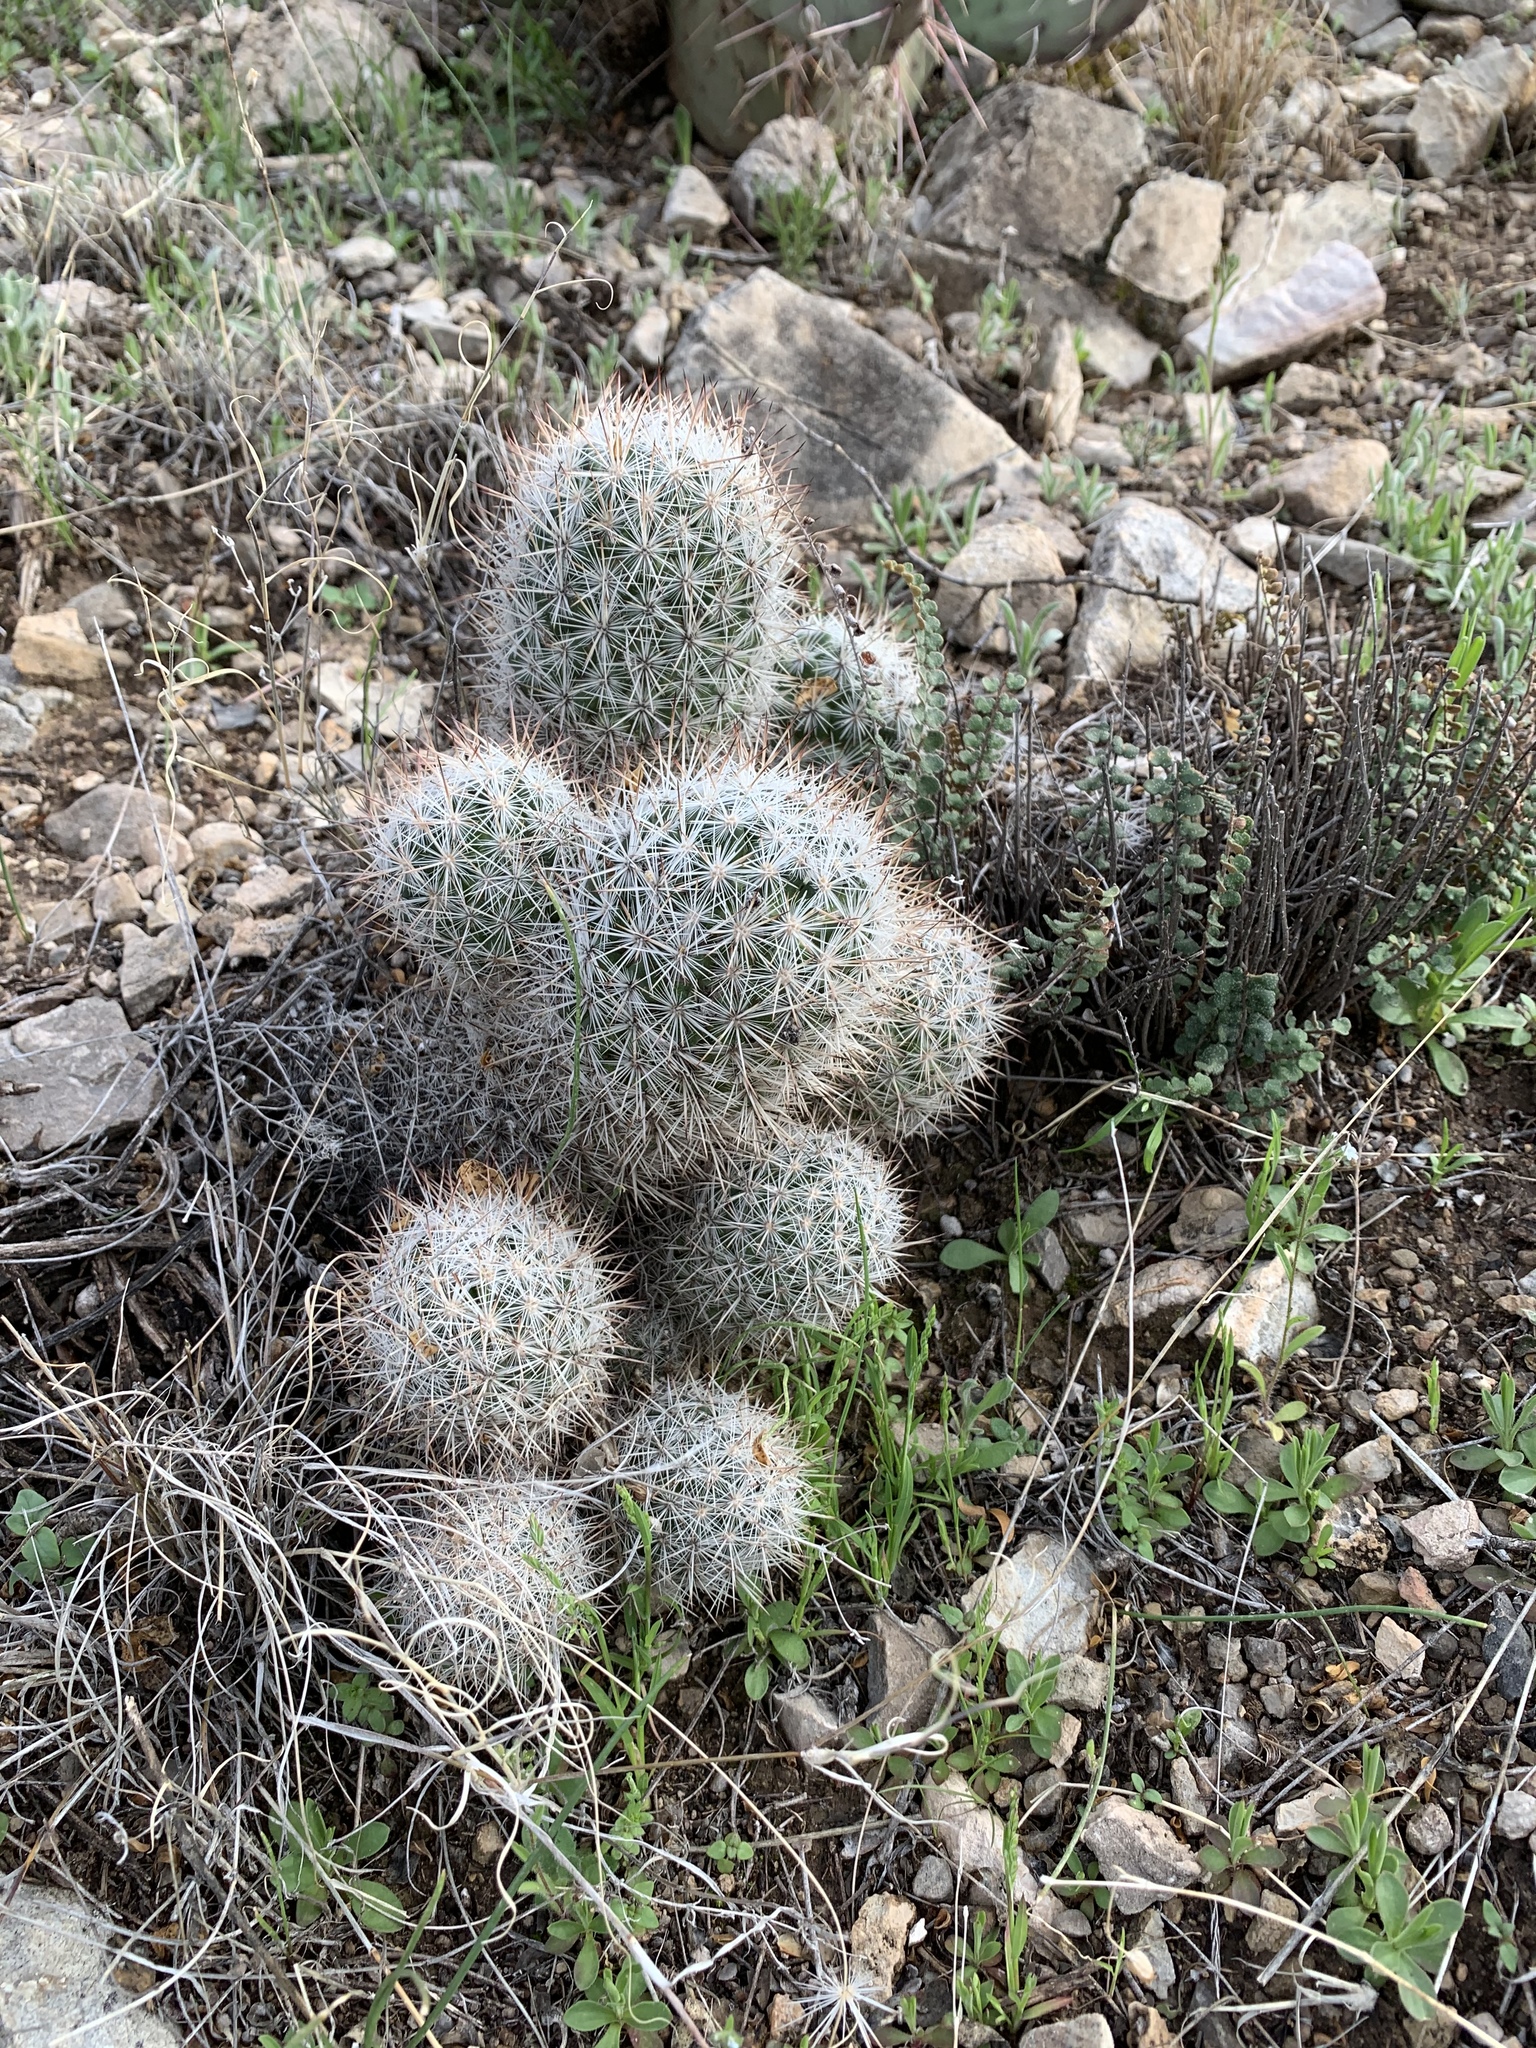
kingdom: Plantae
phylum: Tracheophyta
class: Magnoliopsida
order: Caryophyllales
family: Cactaceae
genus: Pelecyphora
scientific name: Pelecyphora sneedii
